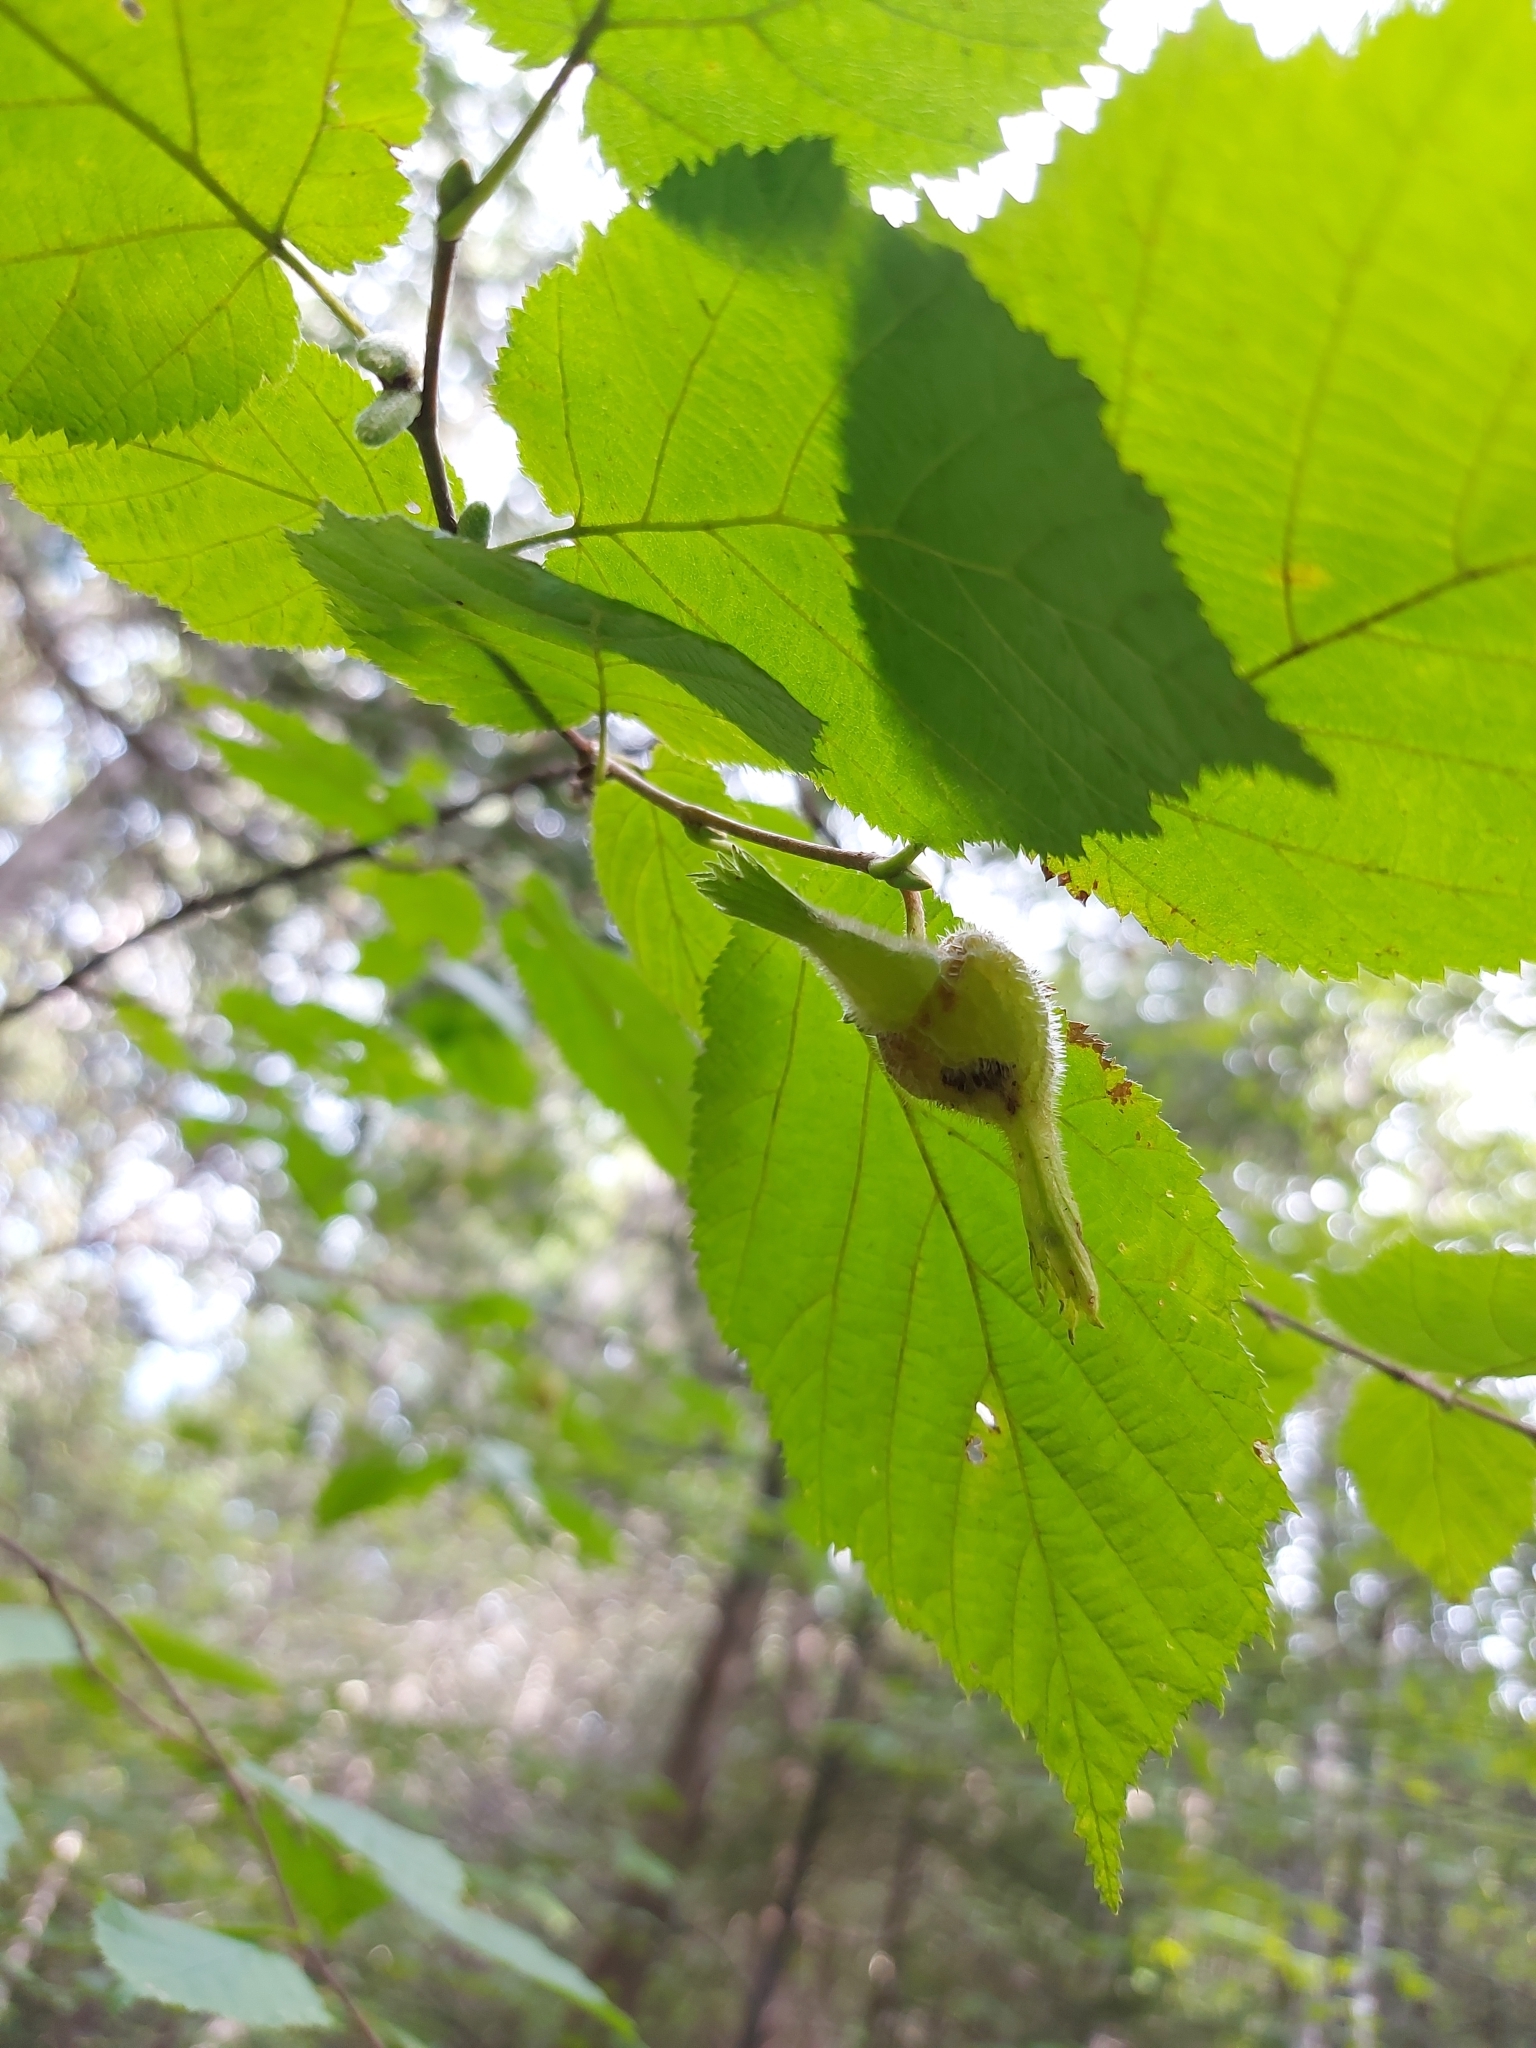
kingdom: Plantae
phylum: Tracheophyta
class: Magnoliopsida
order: Fagales
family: Betulaceae
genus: Corylus
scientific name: Corylus cornuta
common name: Beaked hazel
